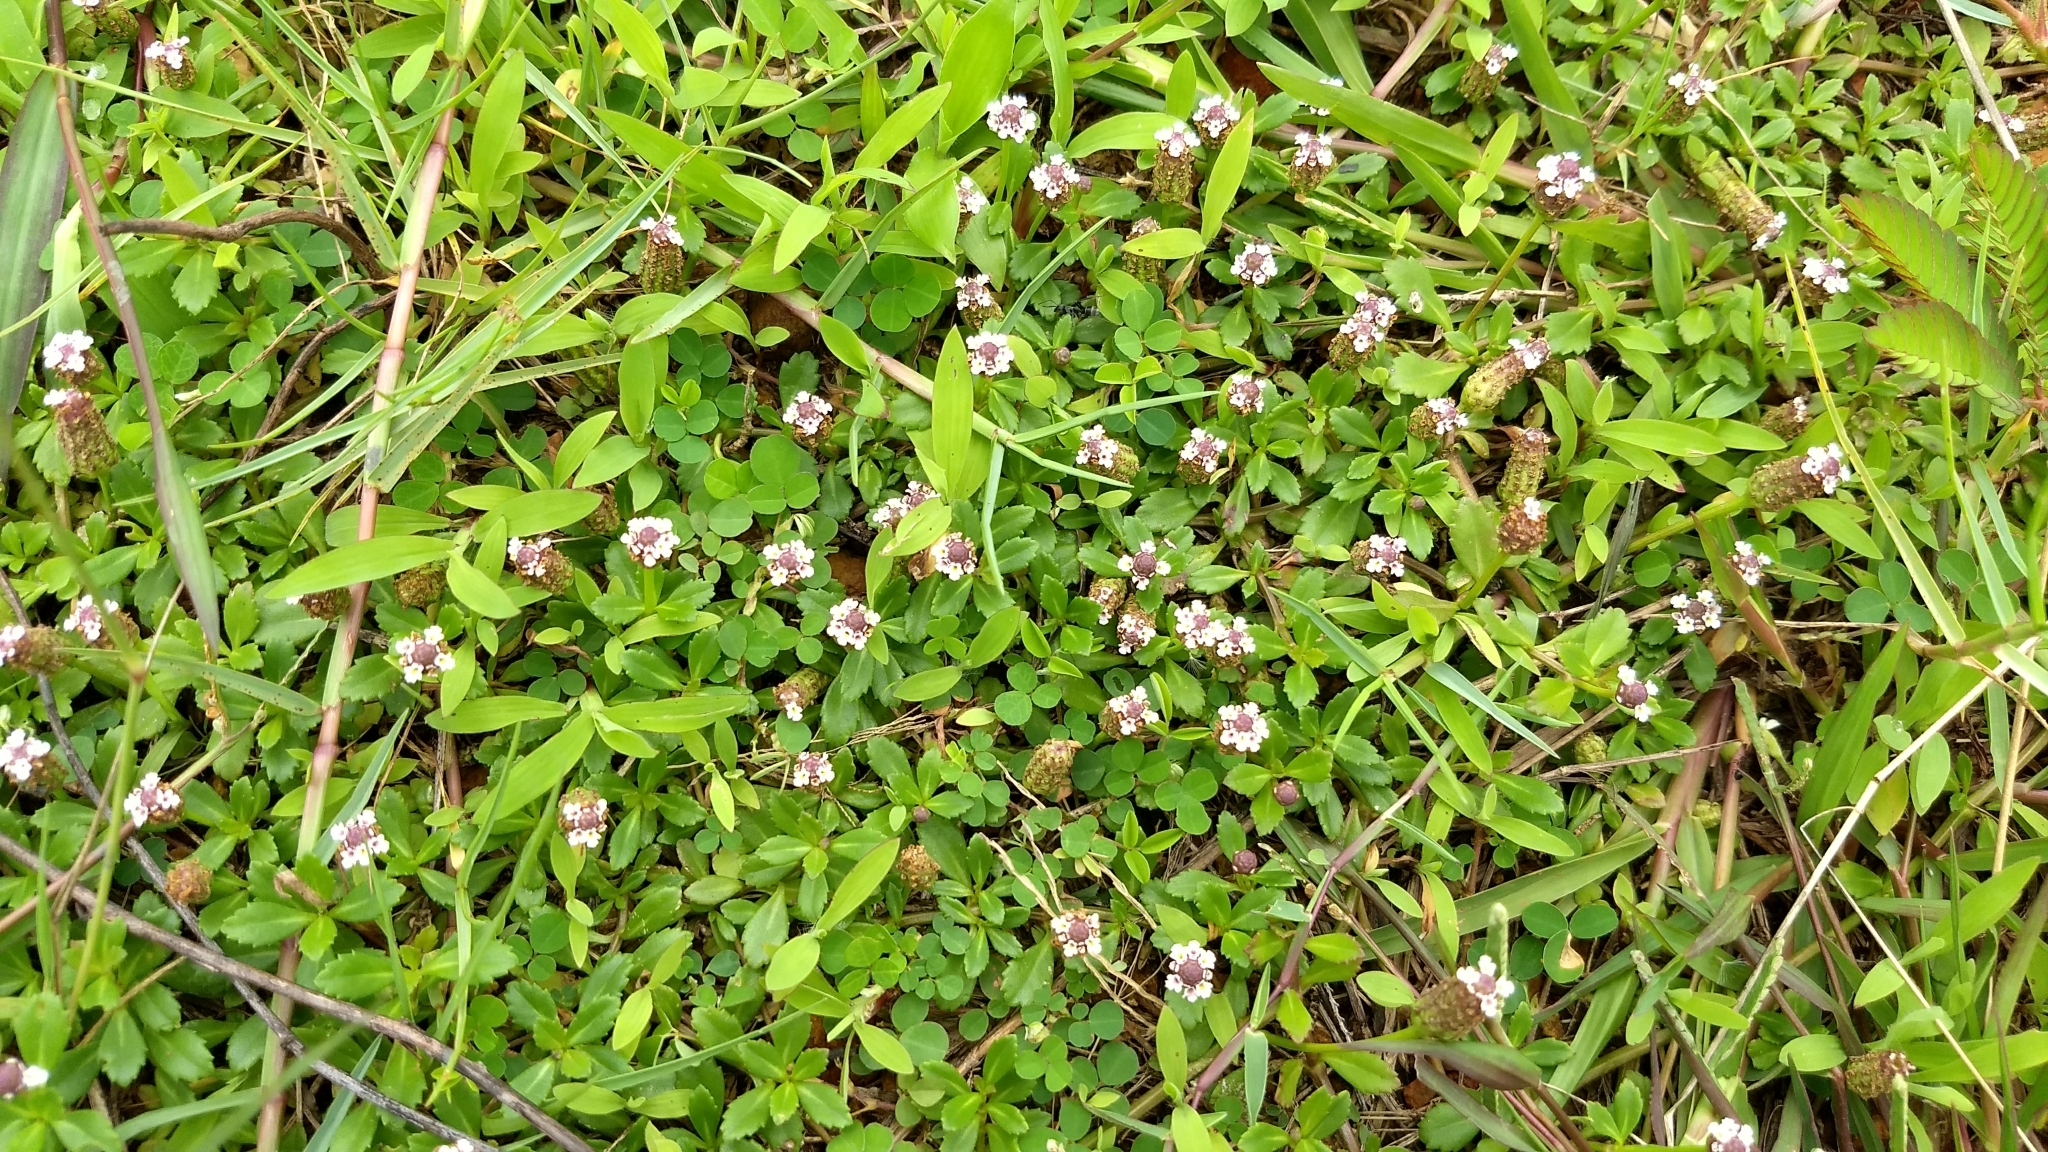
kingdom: Plantae
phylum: Tracheophyta
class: Magnoliopsida
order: Lamiales
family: Verbenaceae
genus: Phyla
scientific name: Phyla nodiflora
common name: Frogfruit
